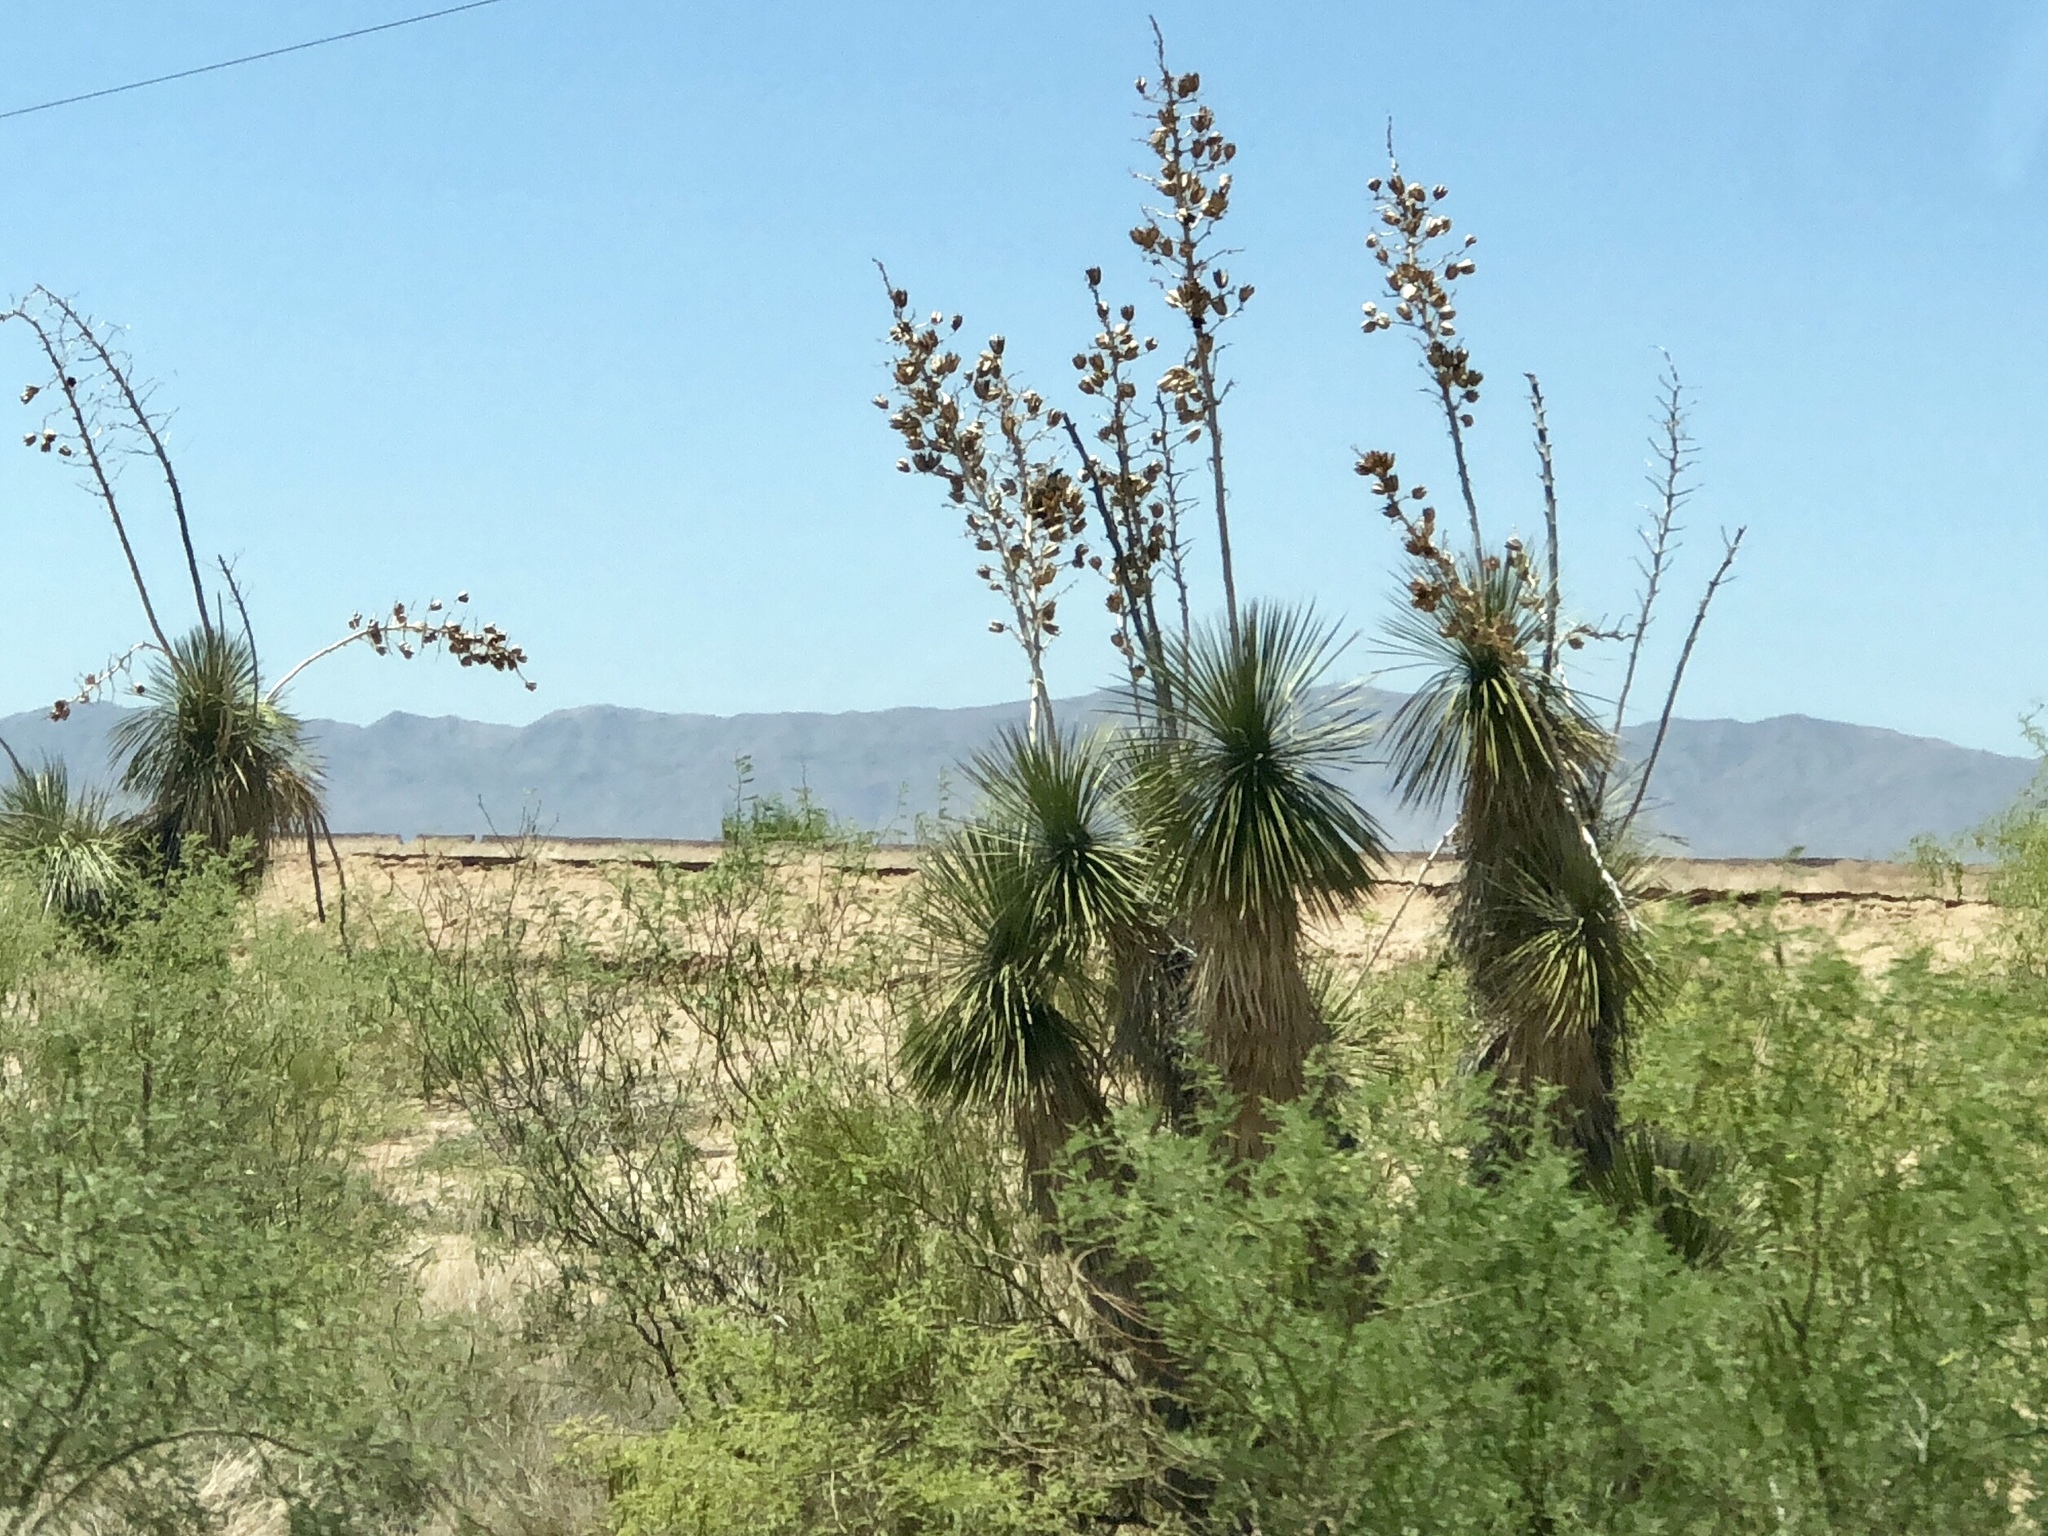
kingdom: Plantae
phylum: Tracheophyta
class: Liliopsida
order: Asparagales
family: Asparagaceae
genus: Yucca
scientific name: Yucca elata
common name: Palmella
